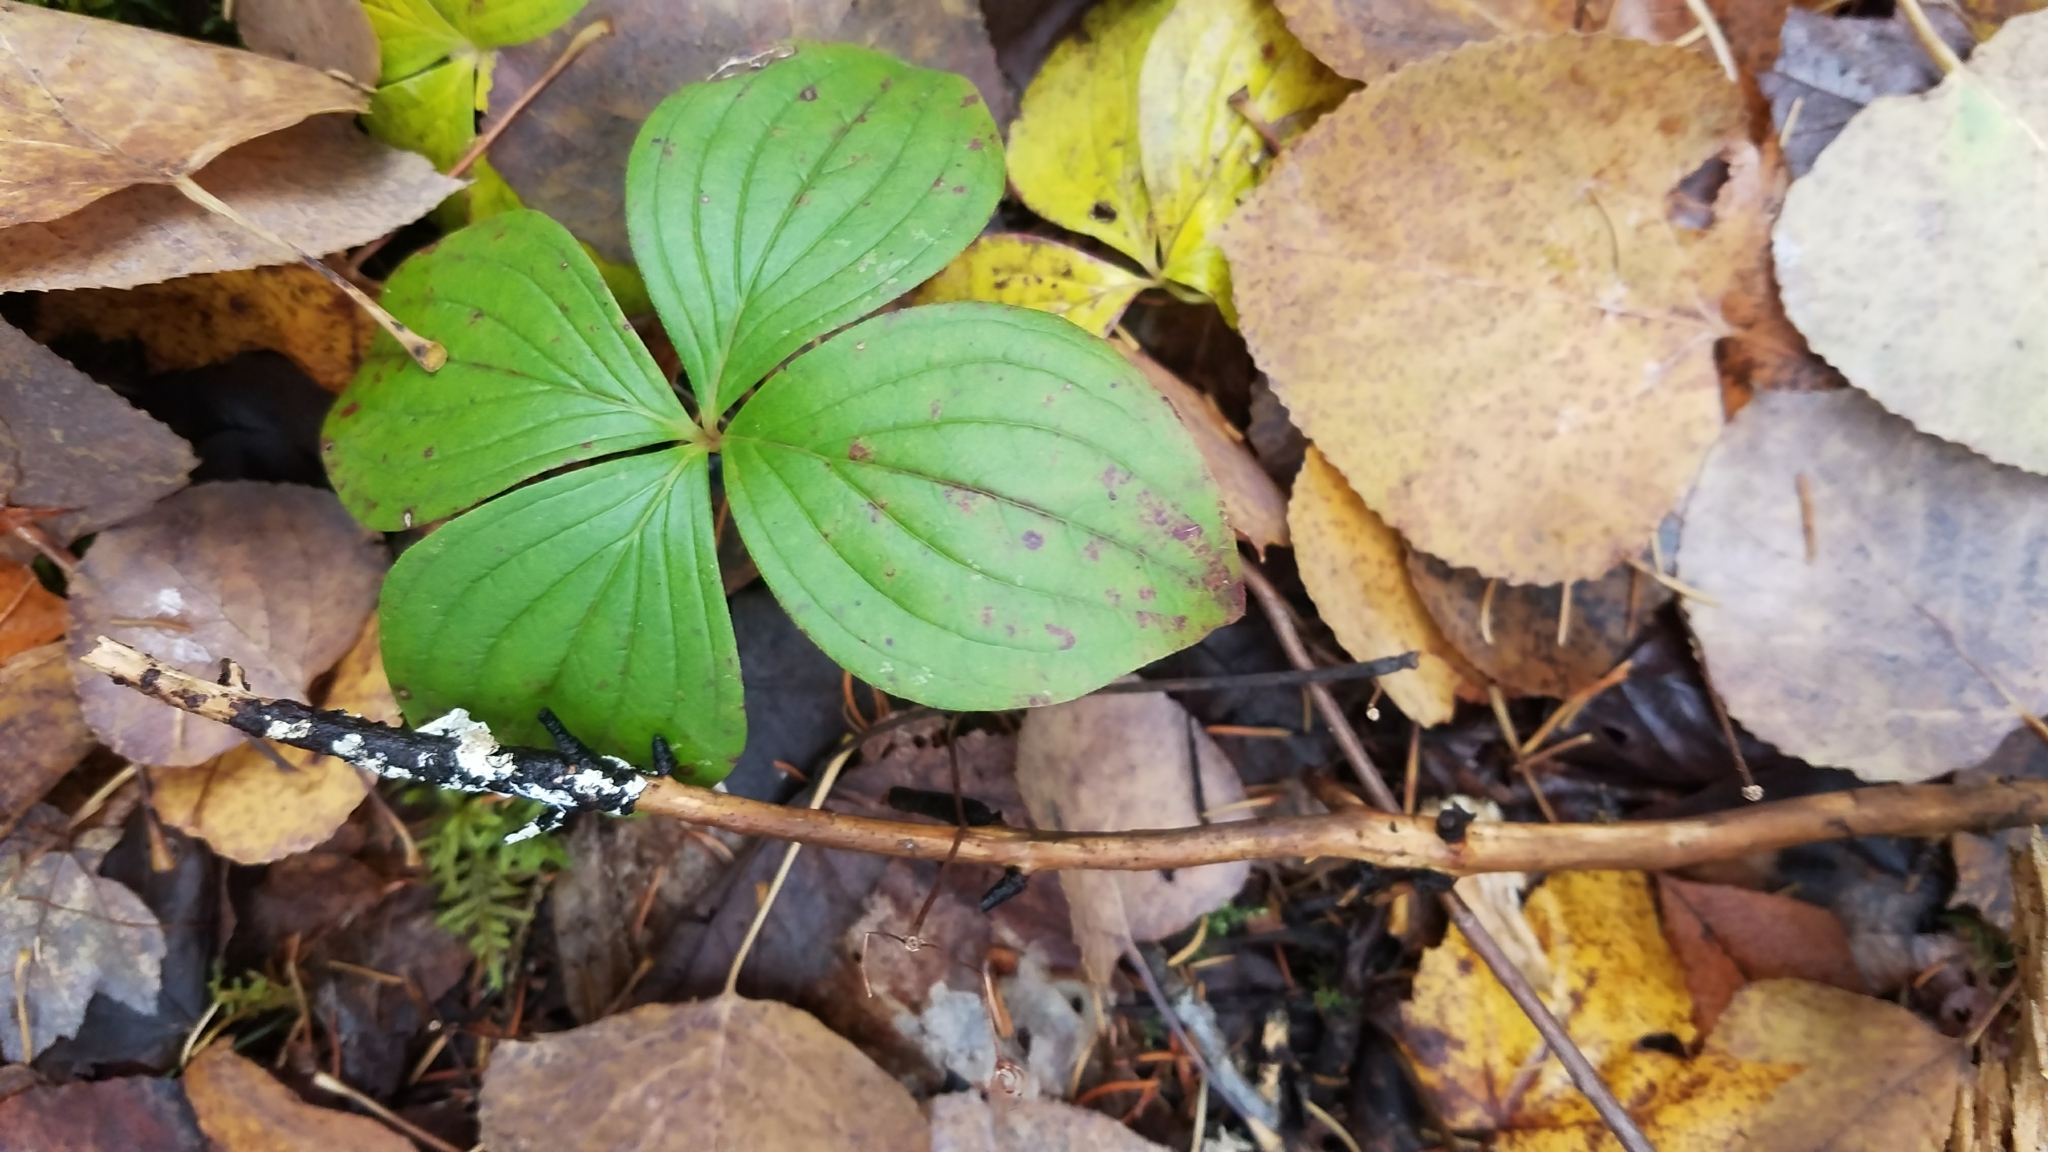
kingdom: Plantae
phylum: Tracheophyta
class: Magnoliopsida
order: Cornales
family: Cornaceae
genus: Cornus
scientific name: Cornus canadensis
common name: Creeping dogwood
